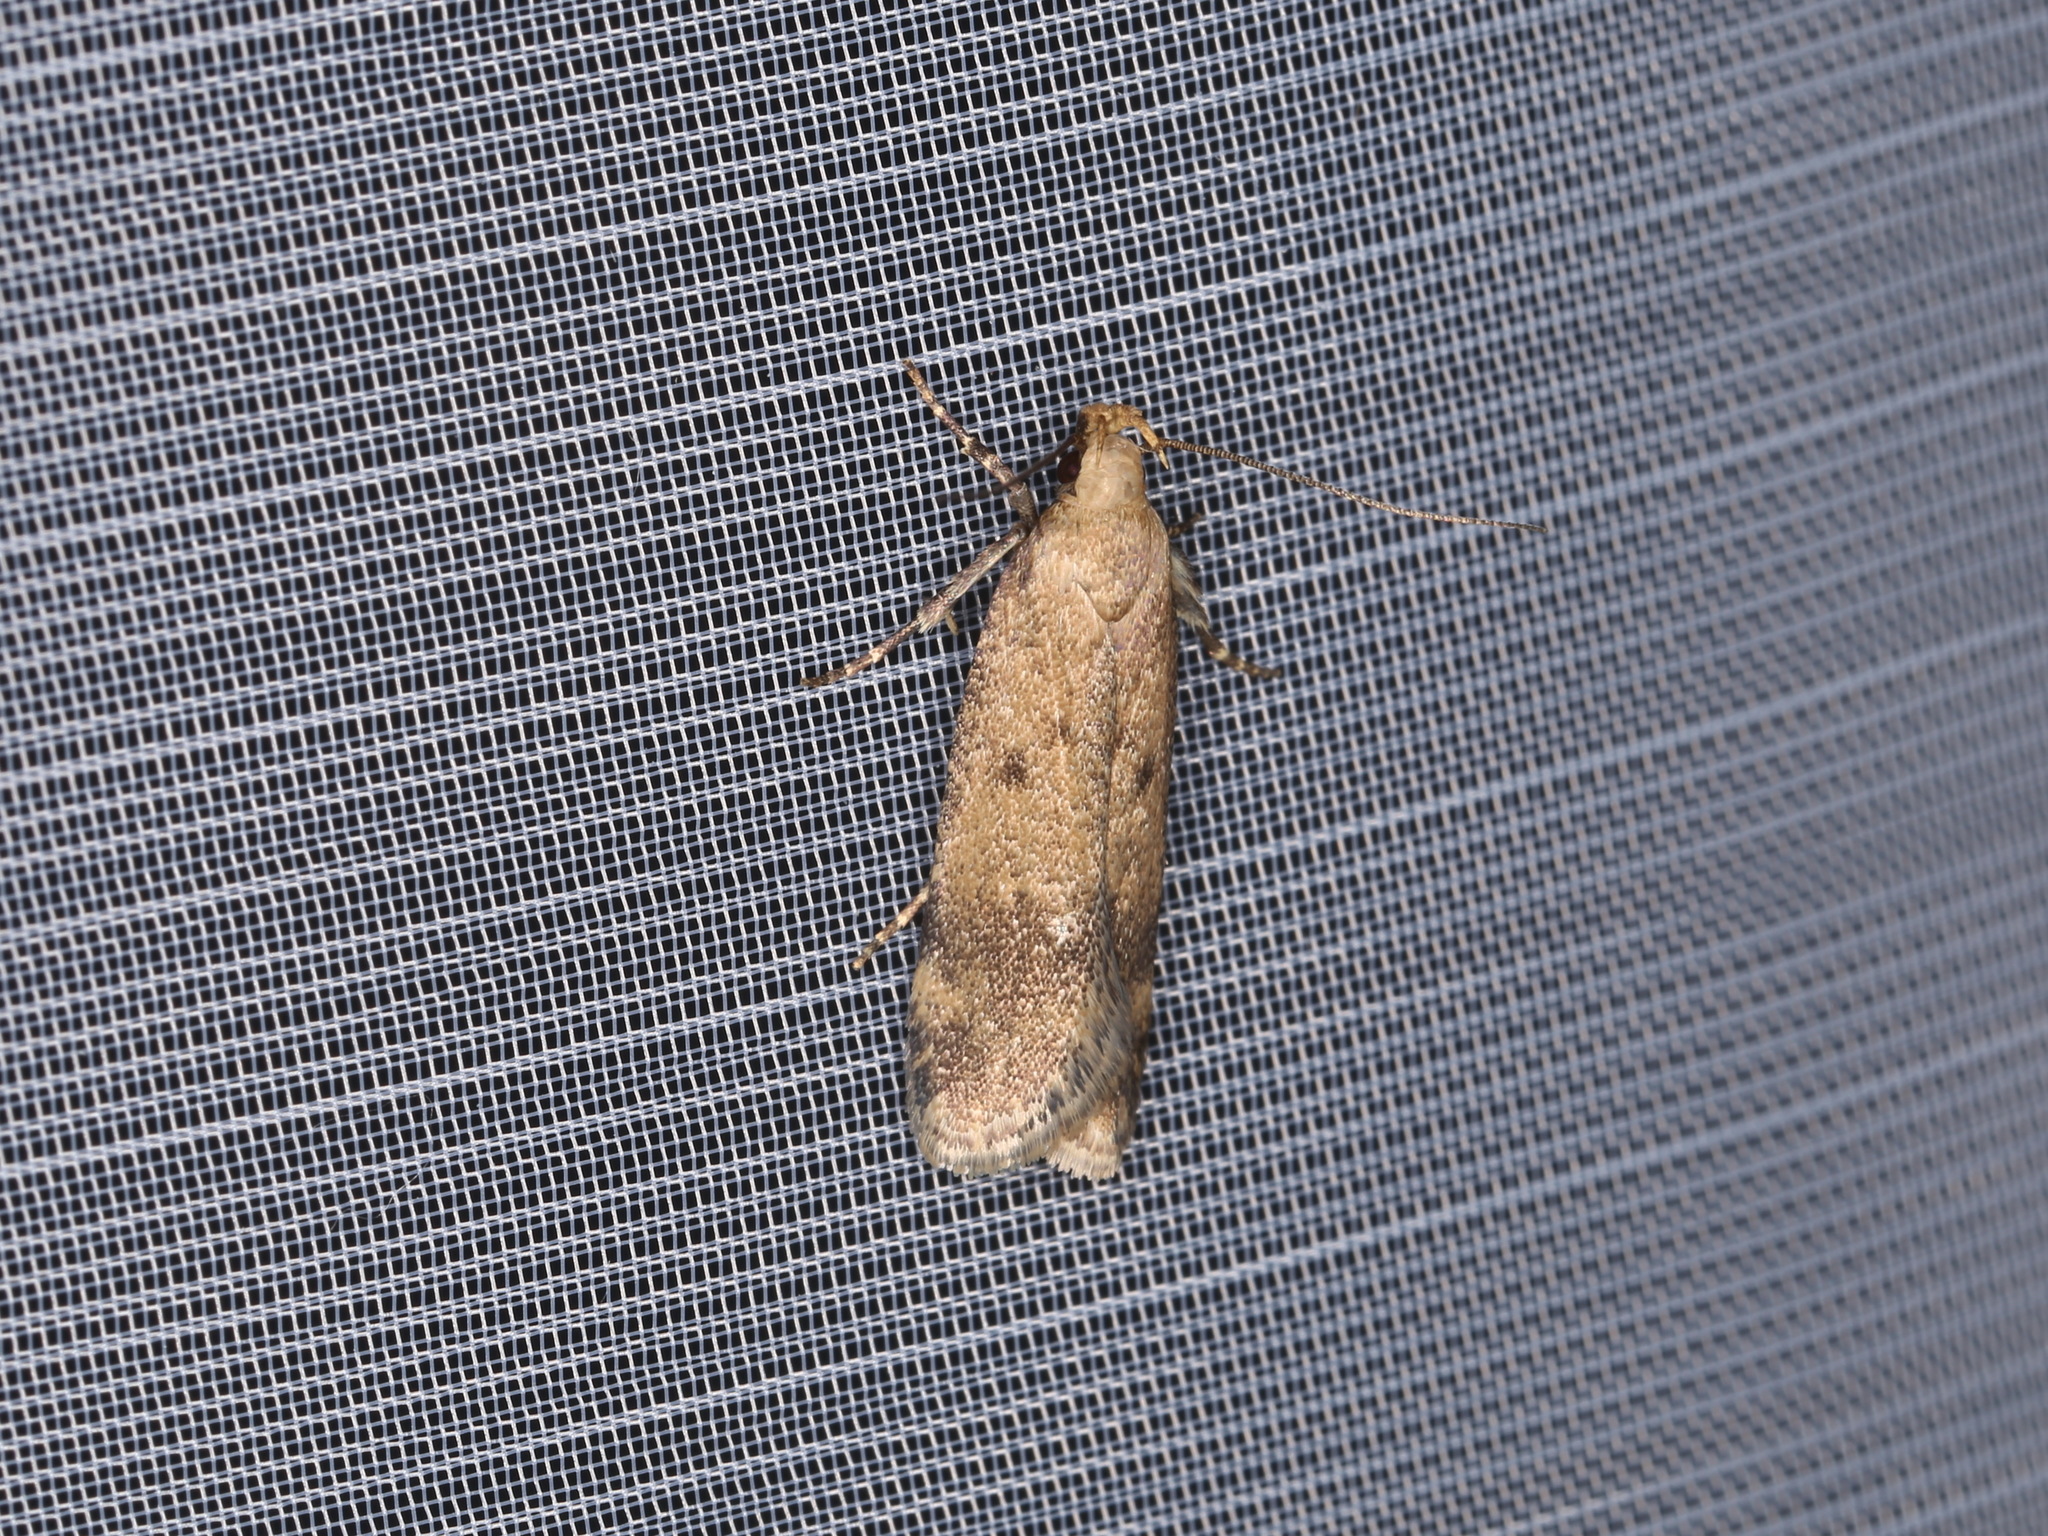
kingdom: Animalia
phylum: Arthropoda
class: Insecta
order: Lepidoptera
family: Gelechiidae
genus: Pexicopia
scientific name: Pexicopia malvella
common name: Hollyhock seed moth
